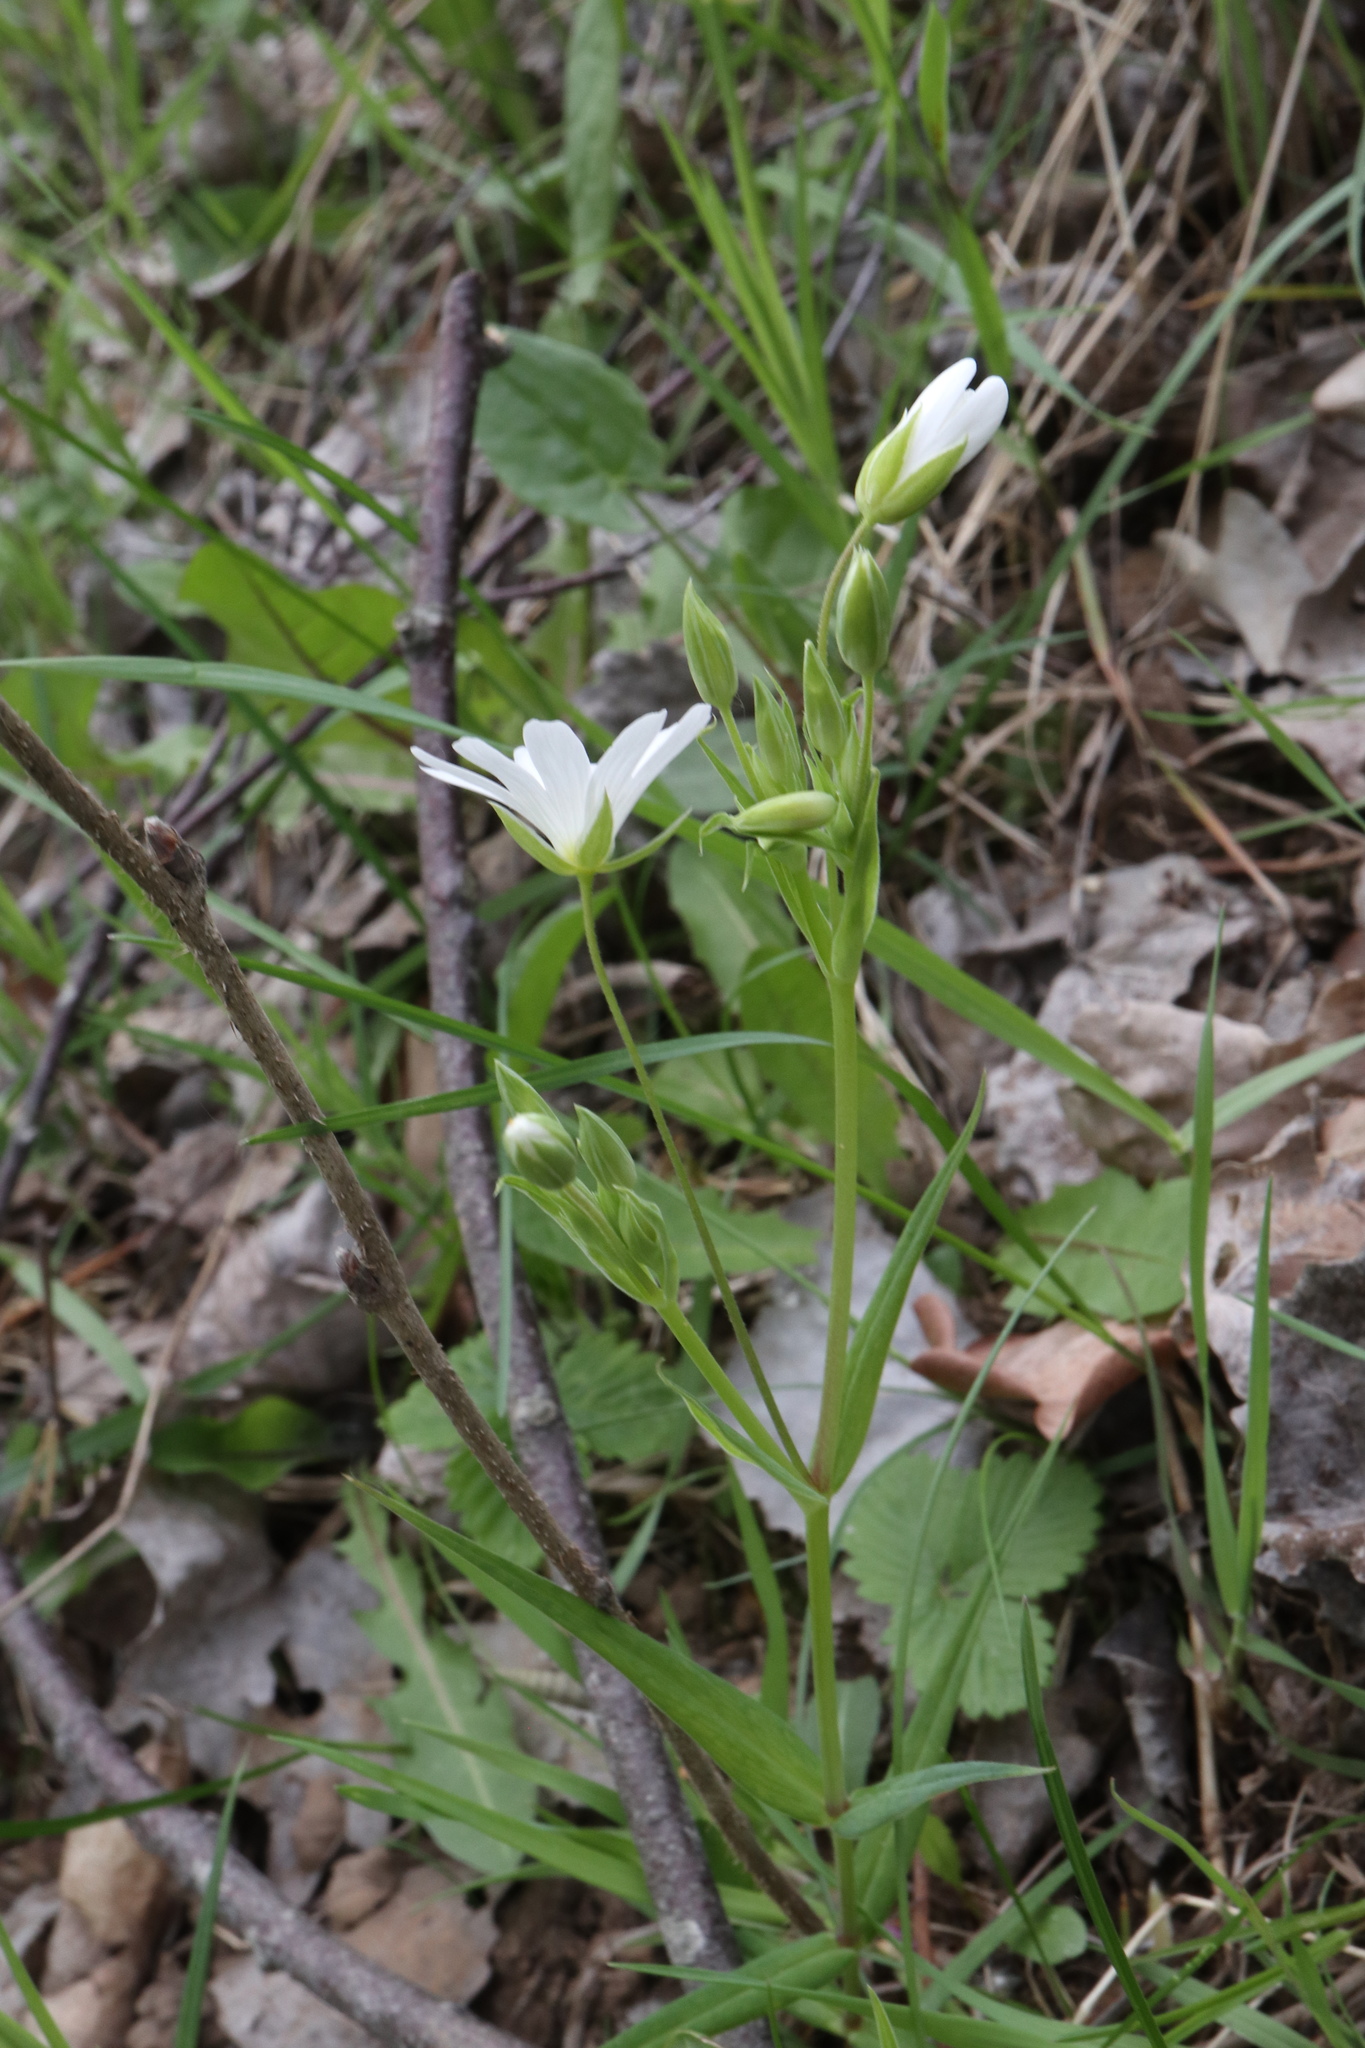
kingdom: Plantae
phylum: Tracheophyta
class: Magnoliopsida
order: Caryophyllales
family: Caryophyllaceae
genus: Rabelera
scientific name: Rabelera holostea
